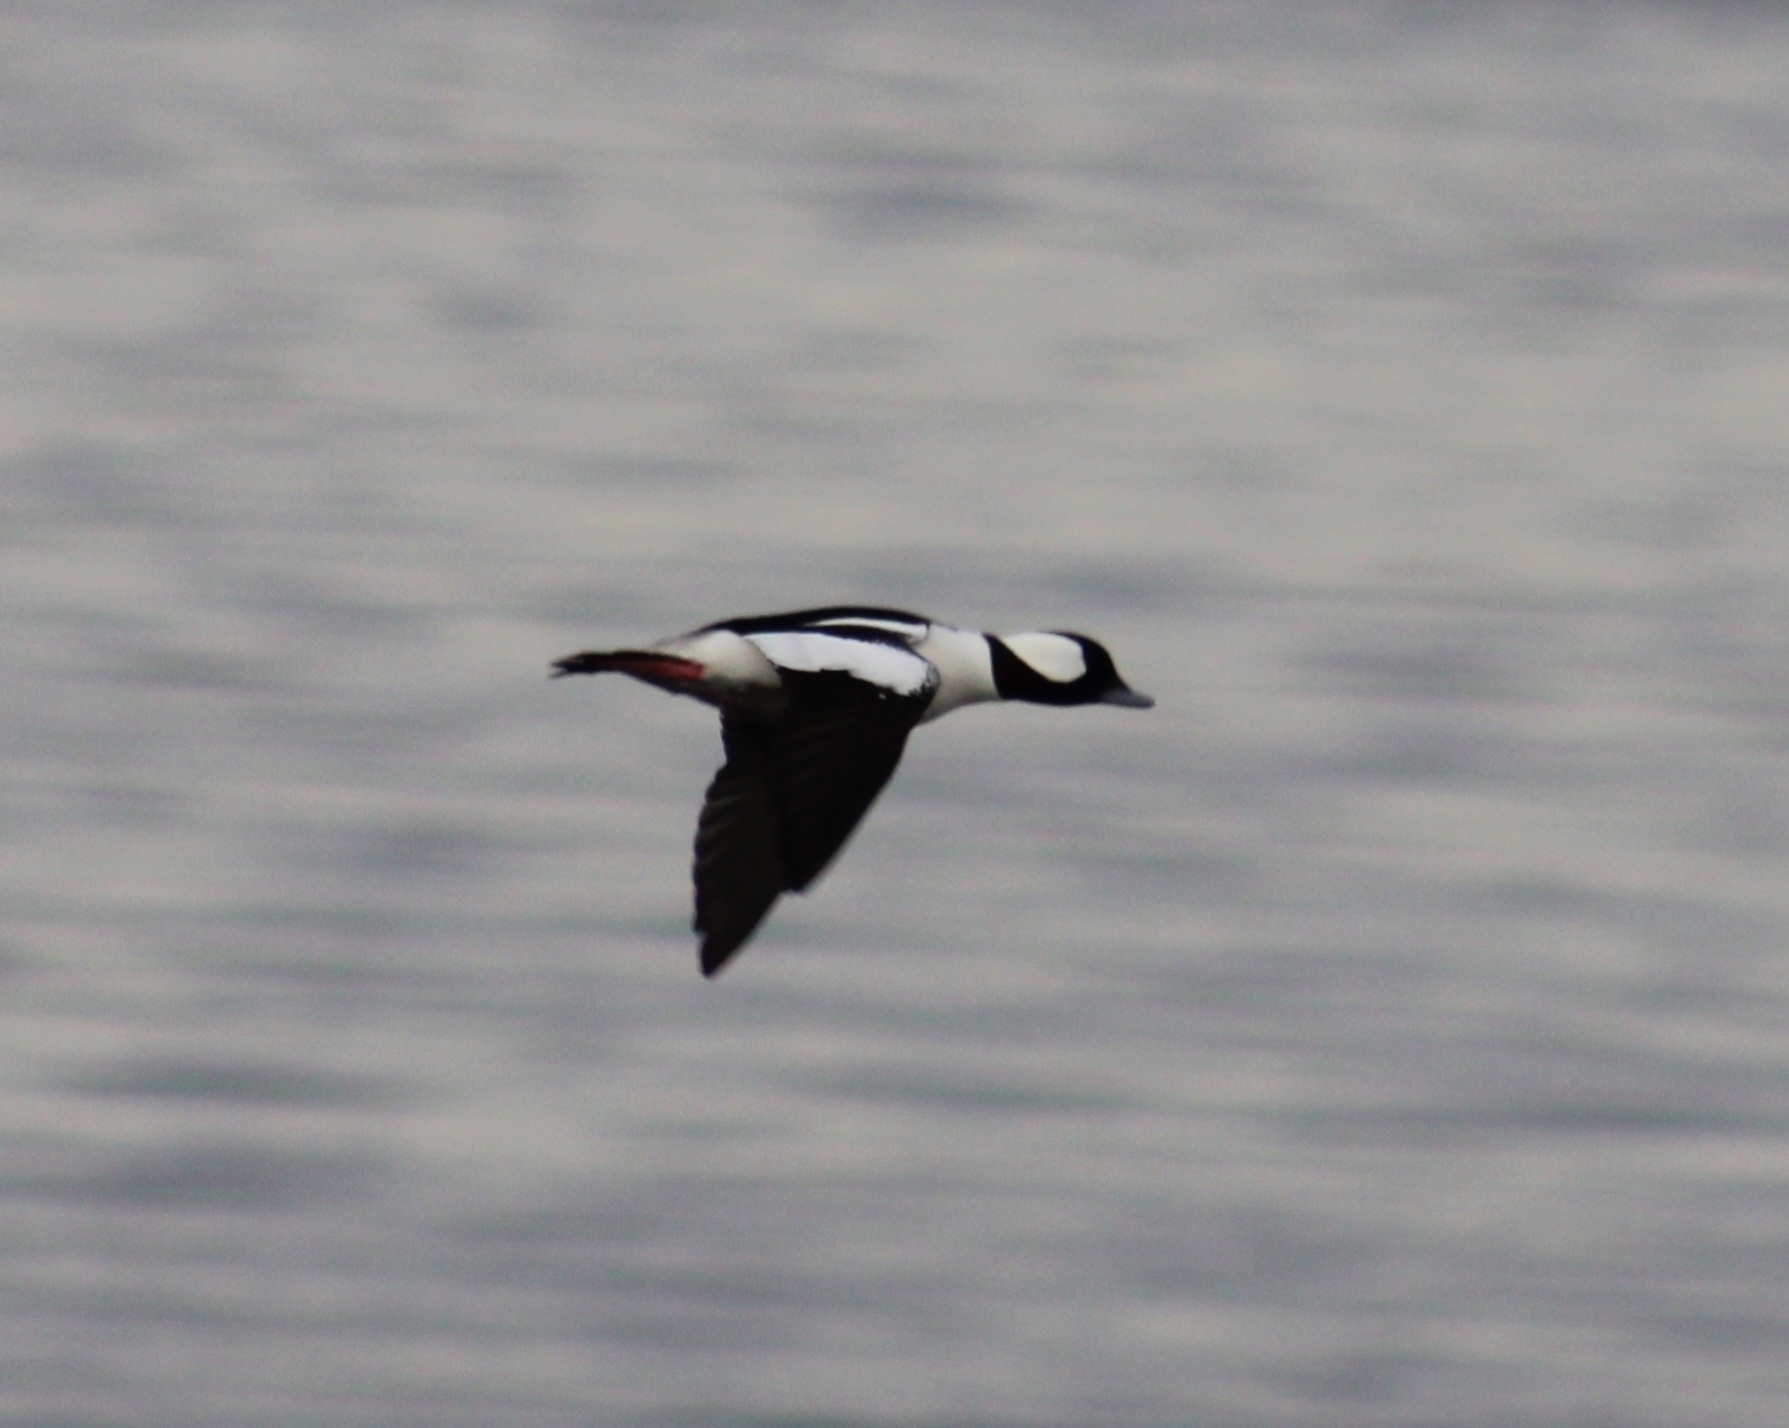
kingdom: Animalia
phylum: Chordata
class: Aves
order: Anseriformes
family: Anatidae
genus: Bucephala
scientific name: Bucephala albeola
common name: Bufflehead
